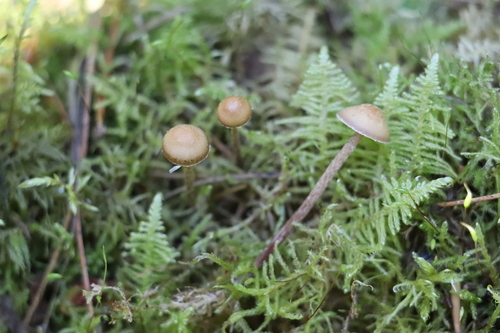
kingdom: Fungi
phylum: Basidiomycota
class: Agaricomycetes
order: Agaricales
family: Strophariaceae
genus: Deconica
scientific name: Deconica phyllogena
